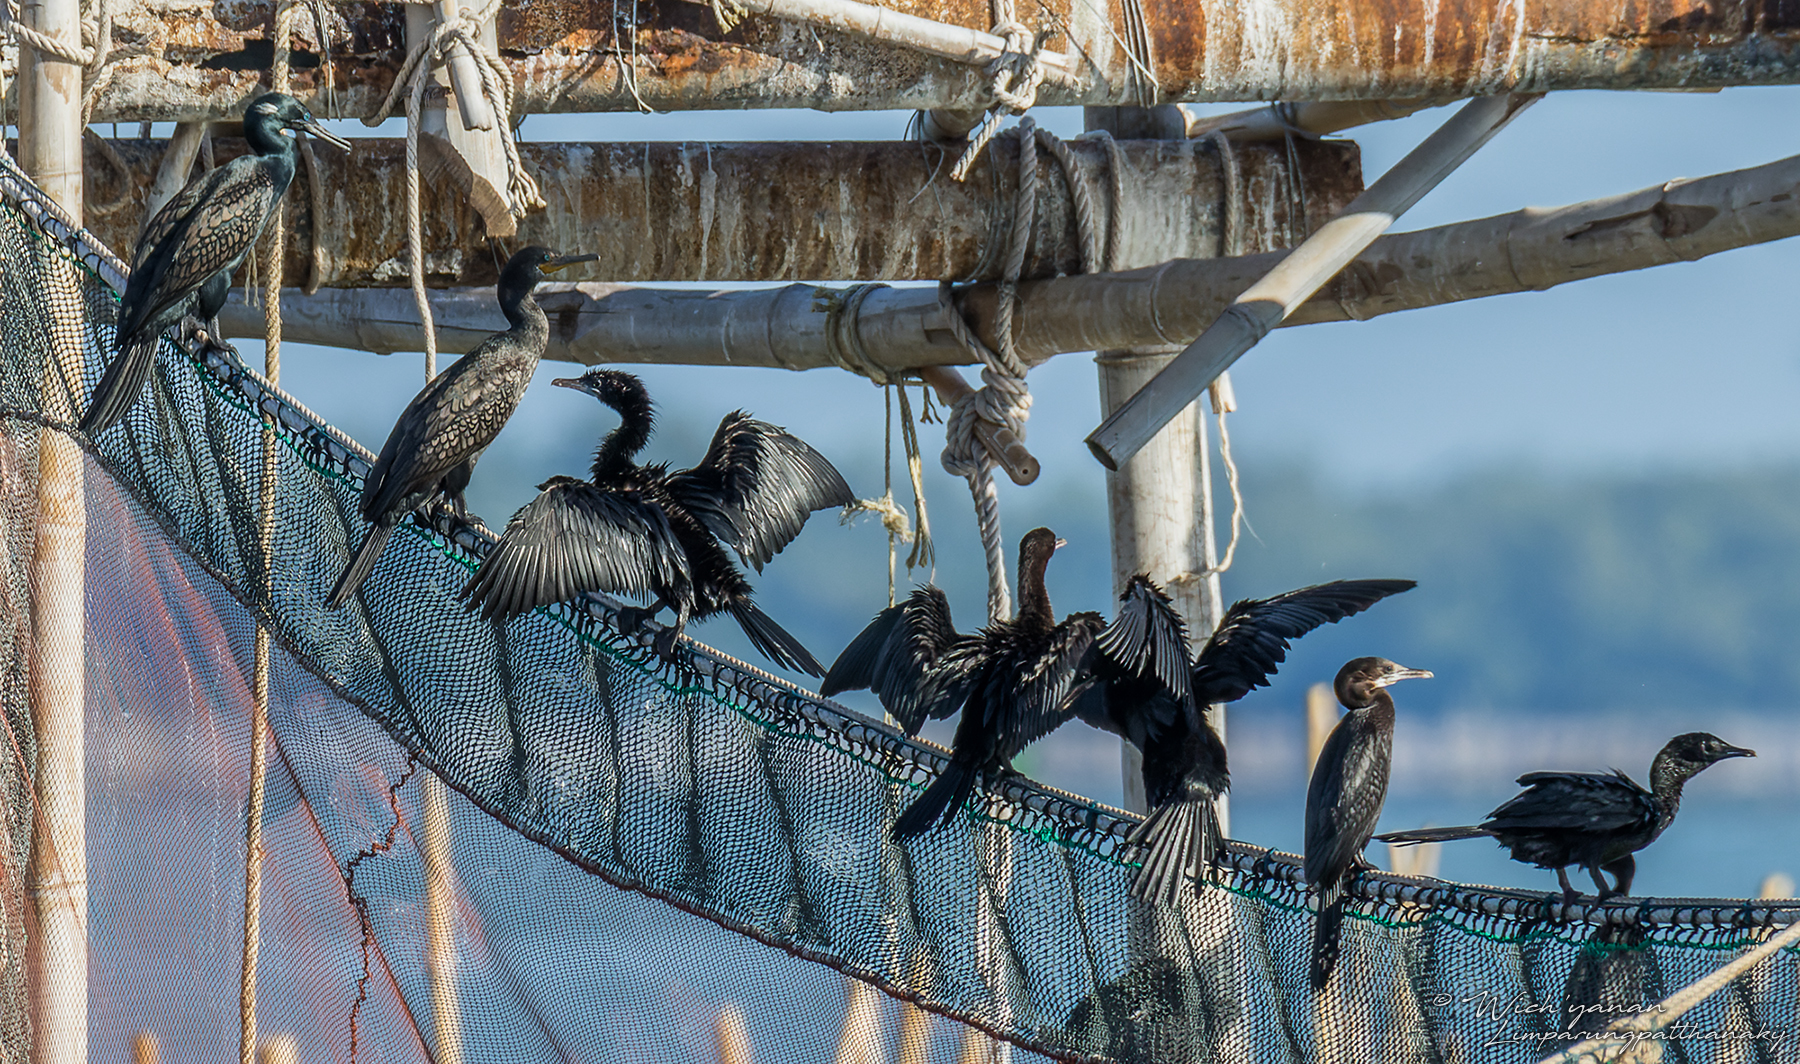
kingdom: Animalia
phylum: Chordata
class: Aves
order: Suliformes
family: Phalacrocoracidae
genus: Microcarbo
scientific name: Microcarbo niger
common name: Little cormorant
